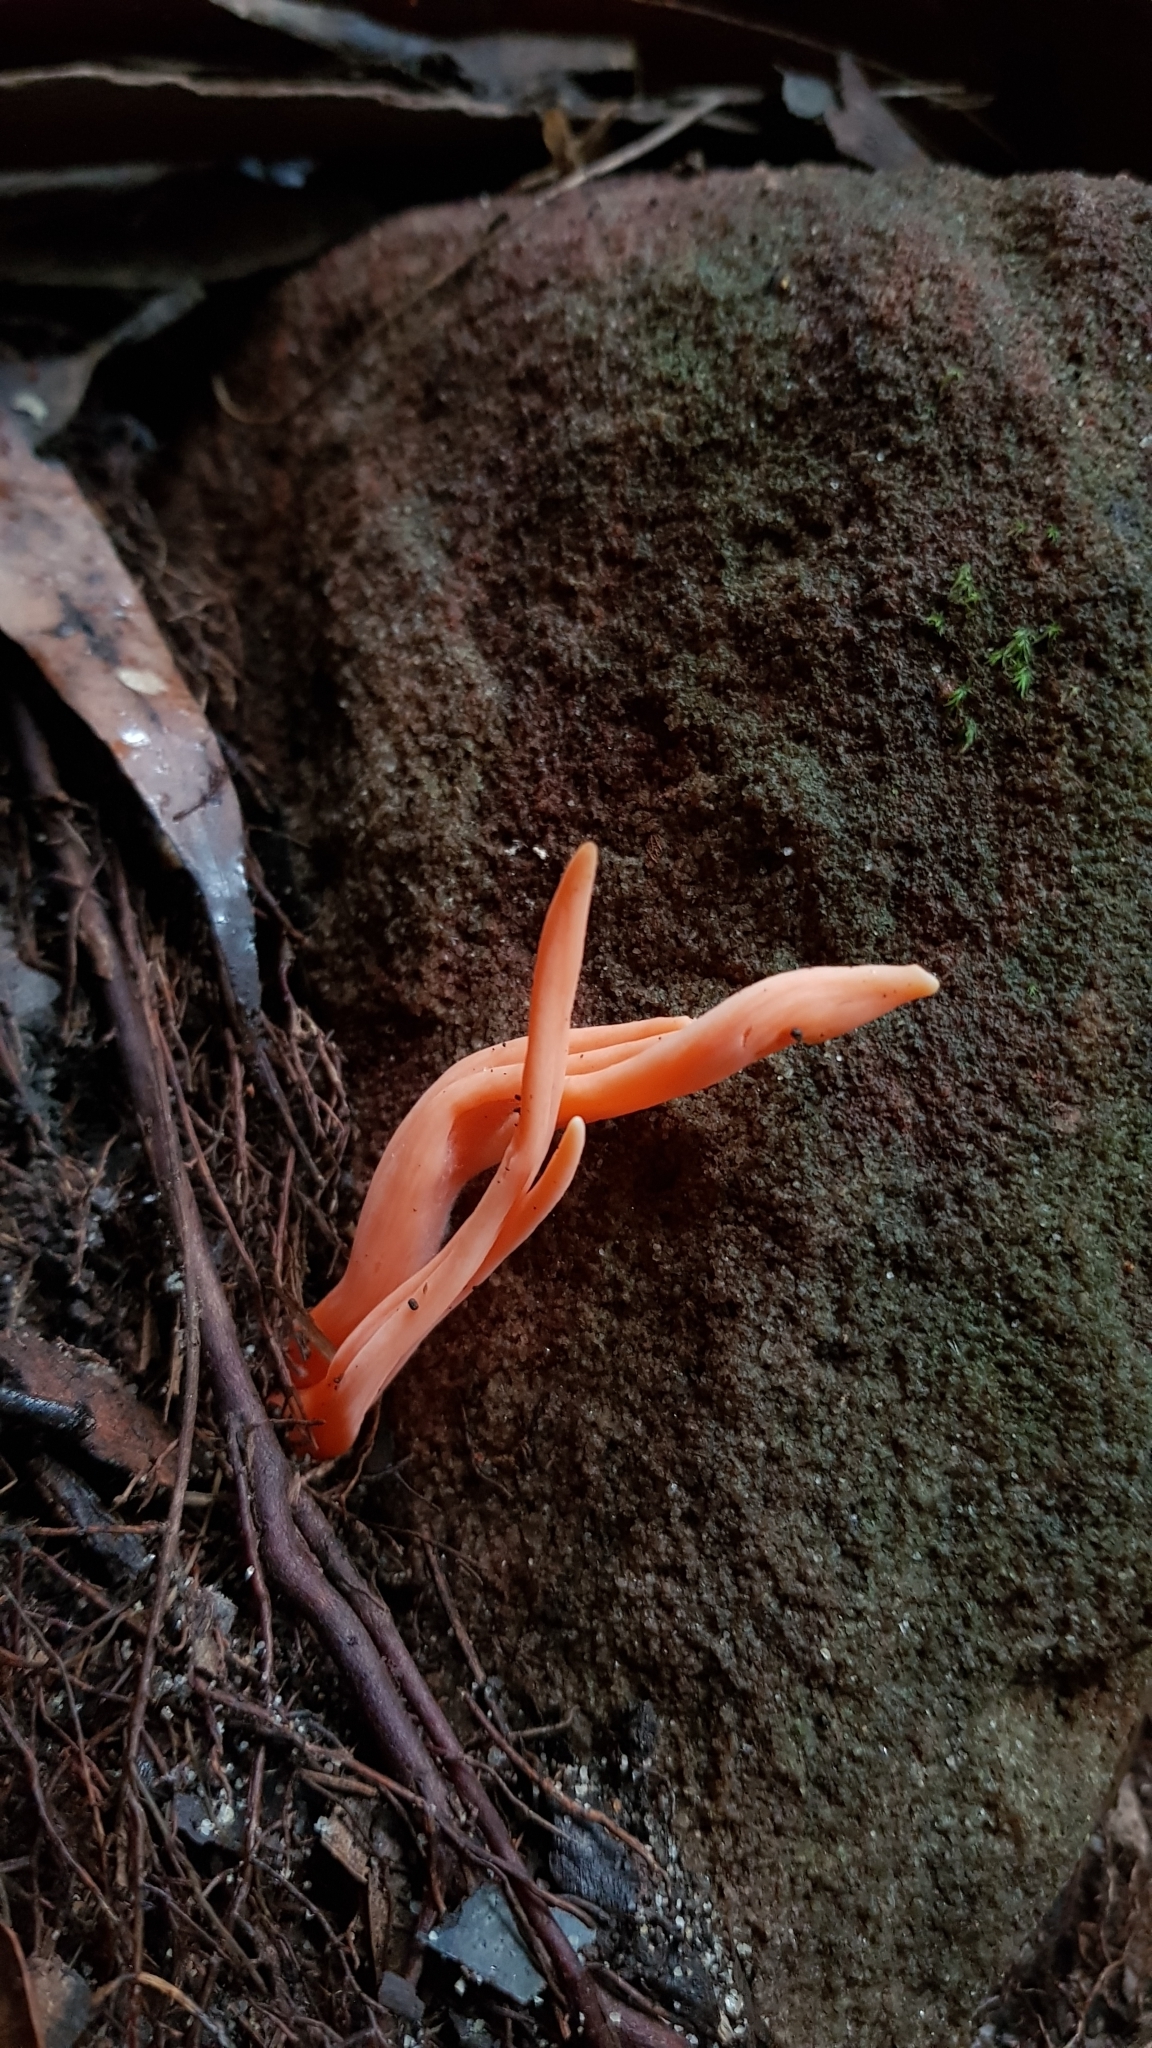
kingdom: Fungi
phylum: Basidiomycota
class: Agaricomycetes
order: Agaricales
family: Clavariaceae
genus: Clavulinopsis
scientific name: Clavulinopsis sulcata
